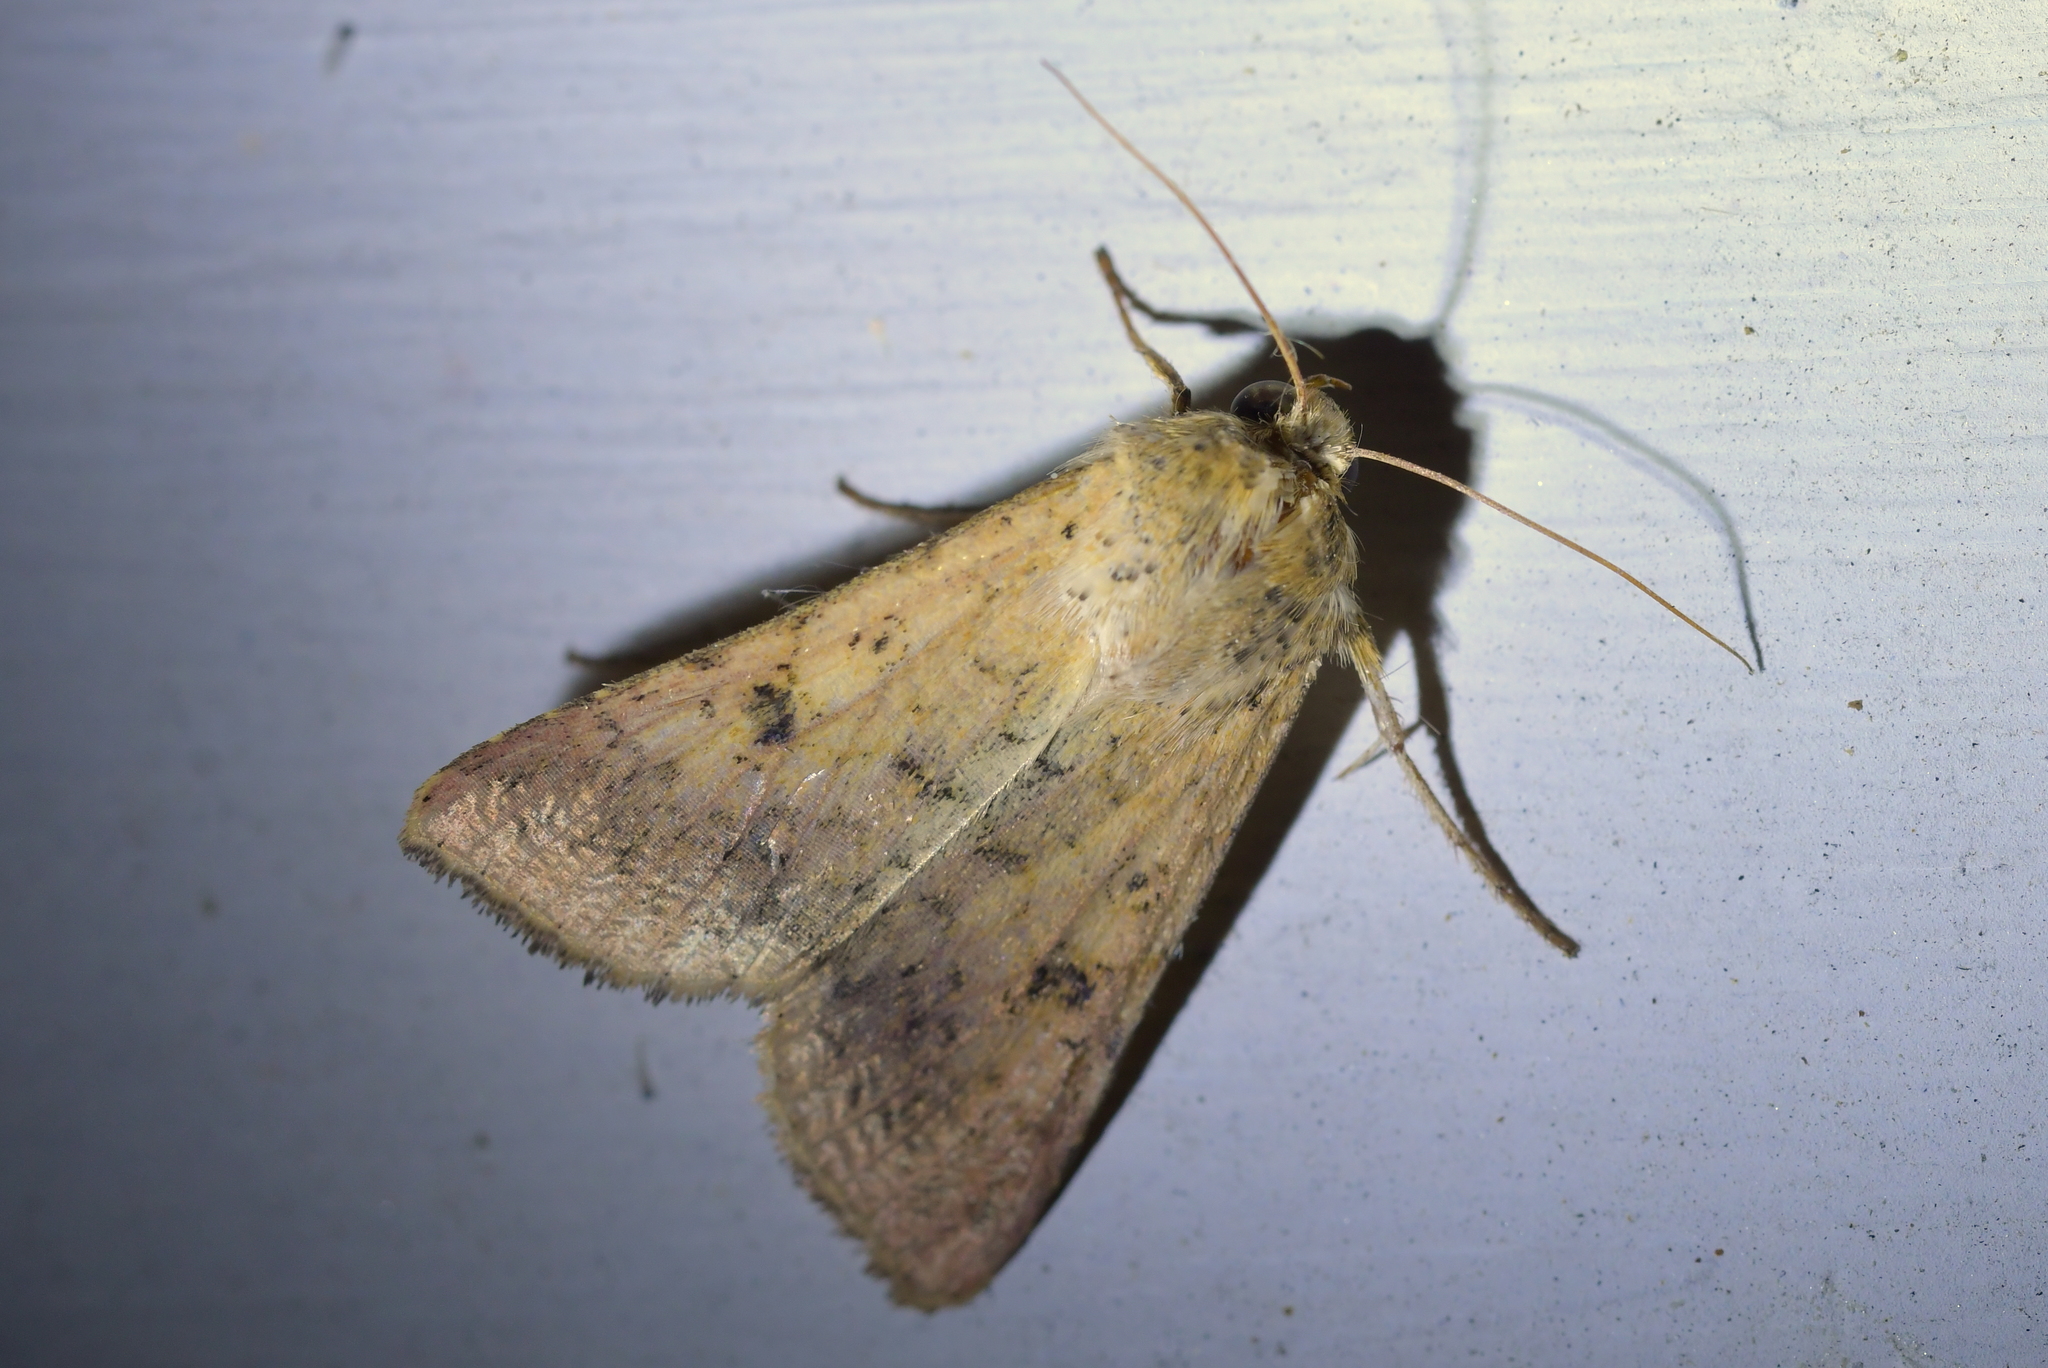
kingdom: Animalia
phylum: Arthropoda
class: Insecta
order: Lepidoptera
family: Noctuidae
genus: Helicoverpa
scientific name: Helicoverpa armigera
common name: Cotton bollworm
